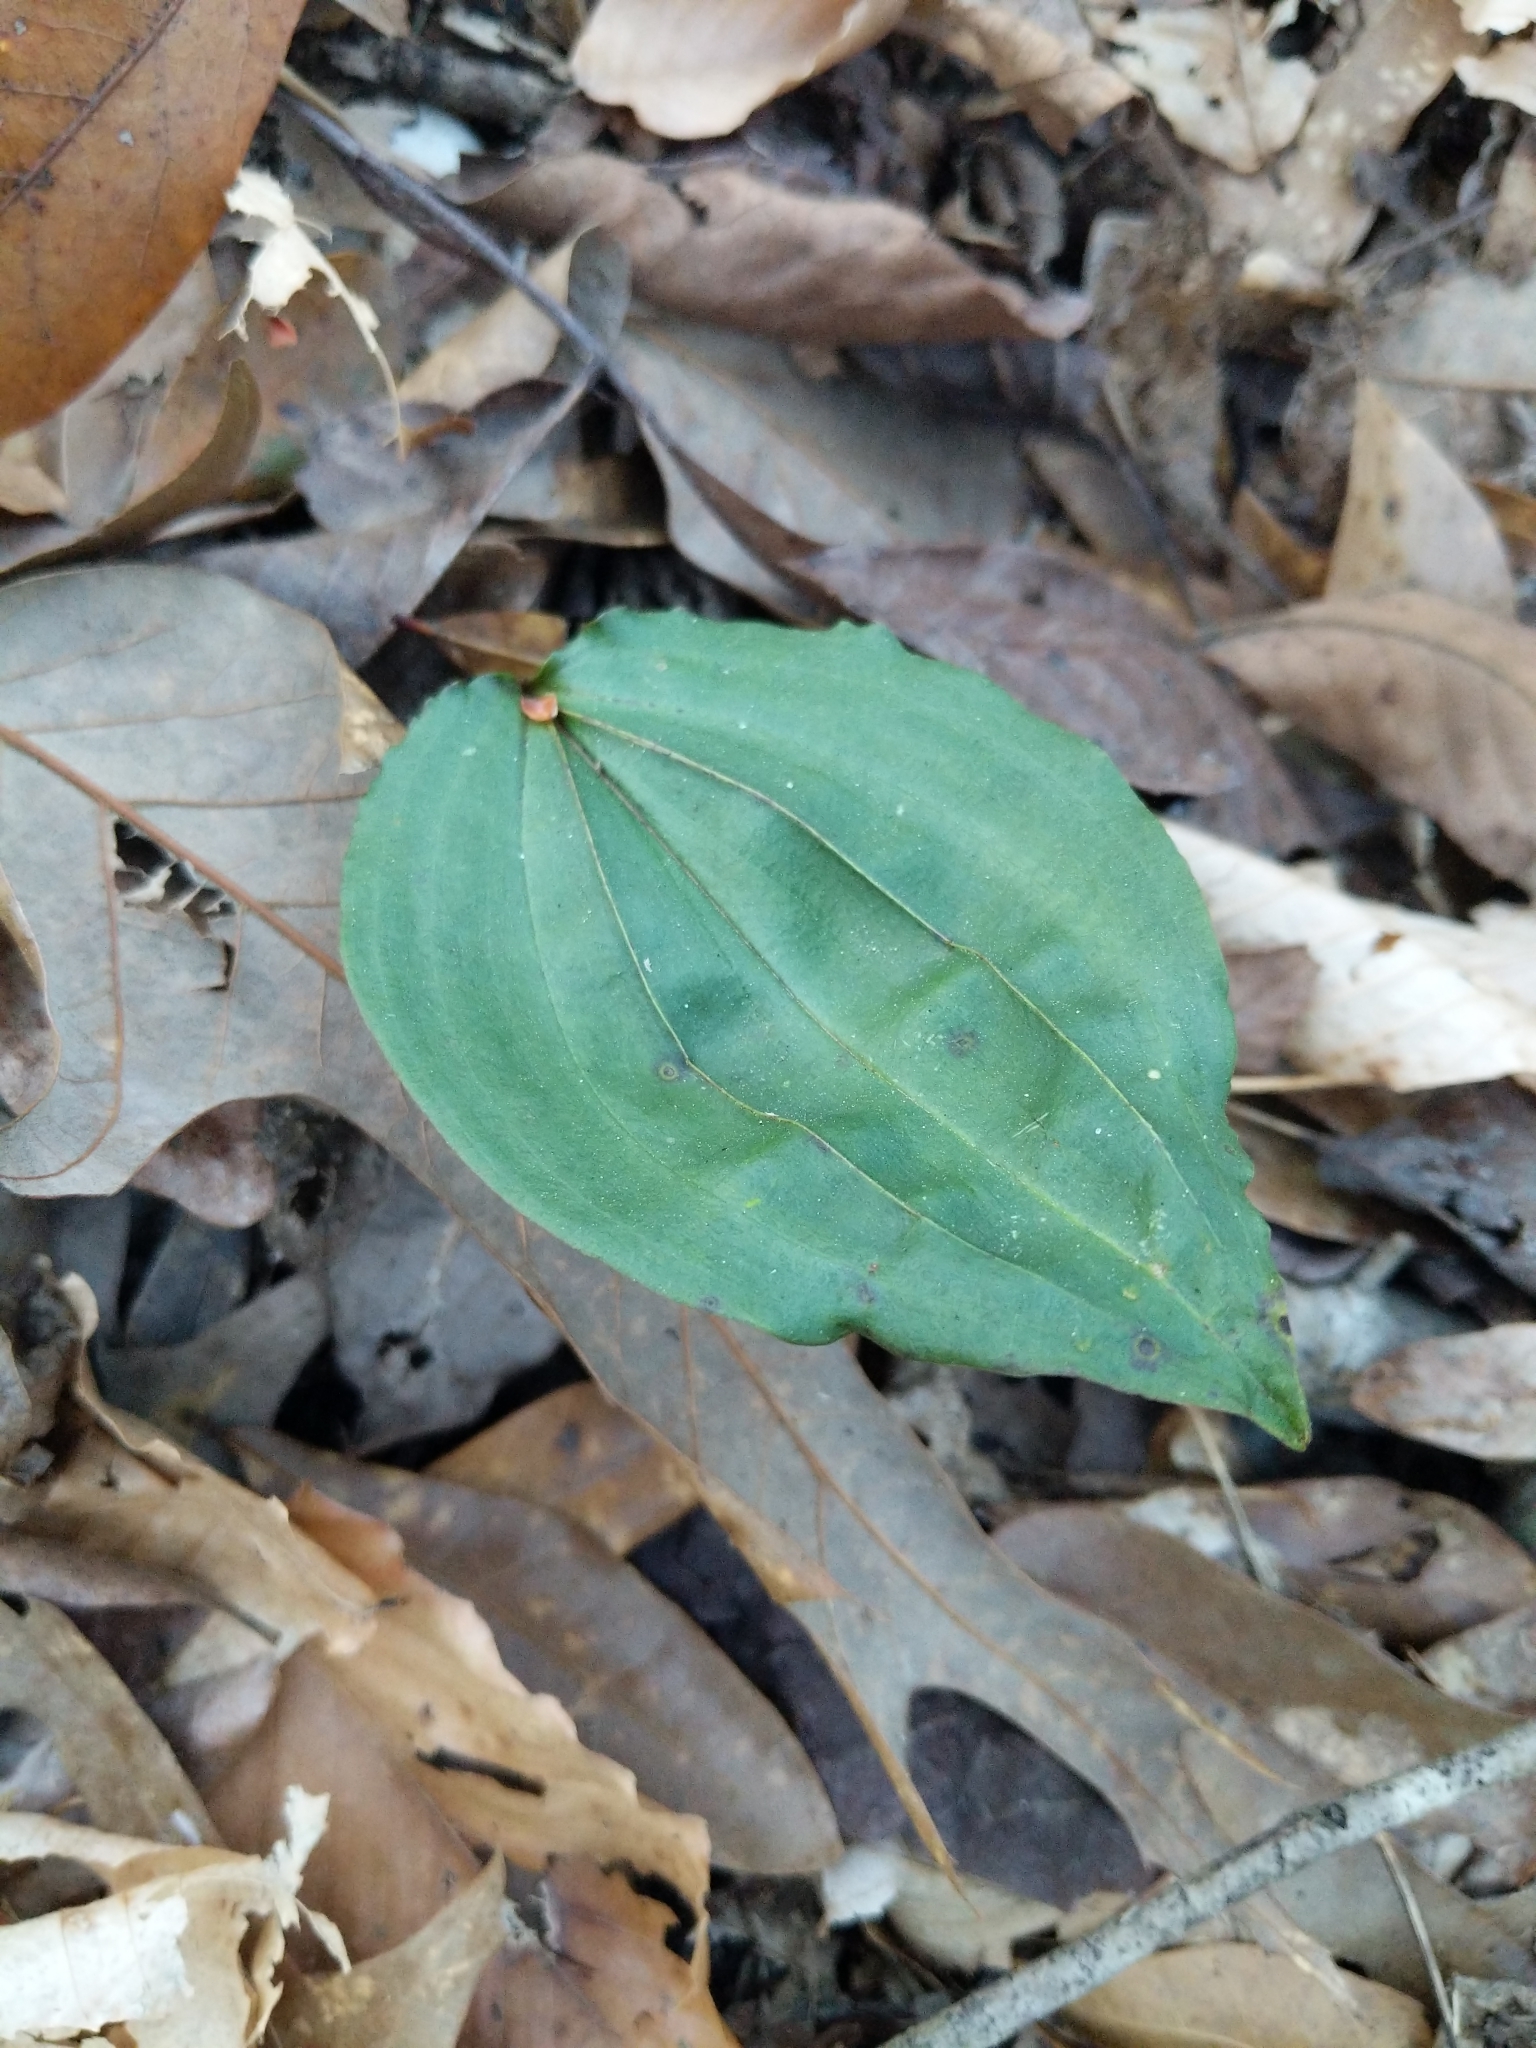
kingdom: Plantae
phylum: Tracheophyta
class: Liliopsida
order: Asparagales
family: Orchidaceae
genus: Tipularia
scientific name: Tipularia discolor
